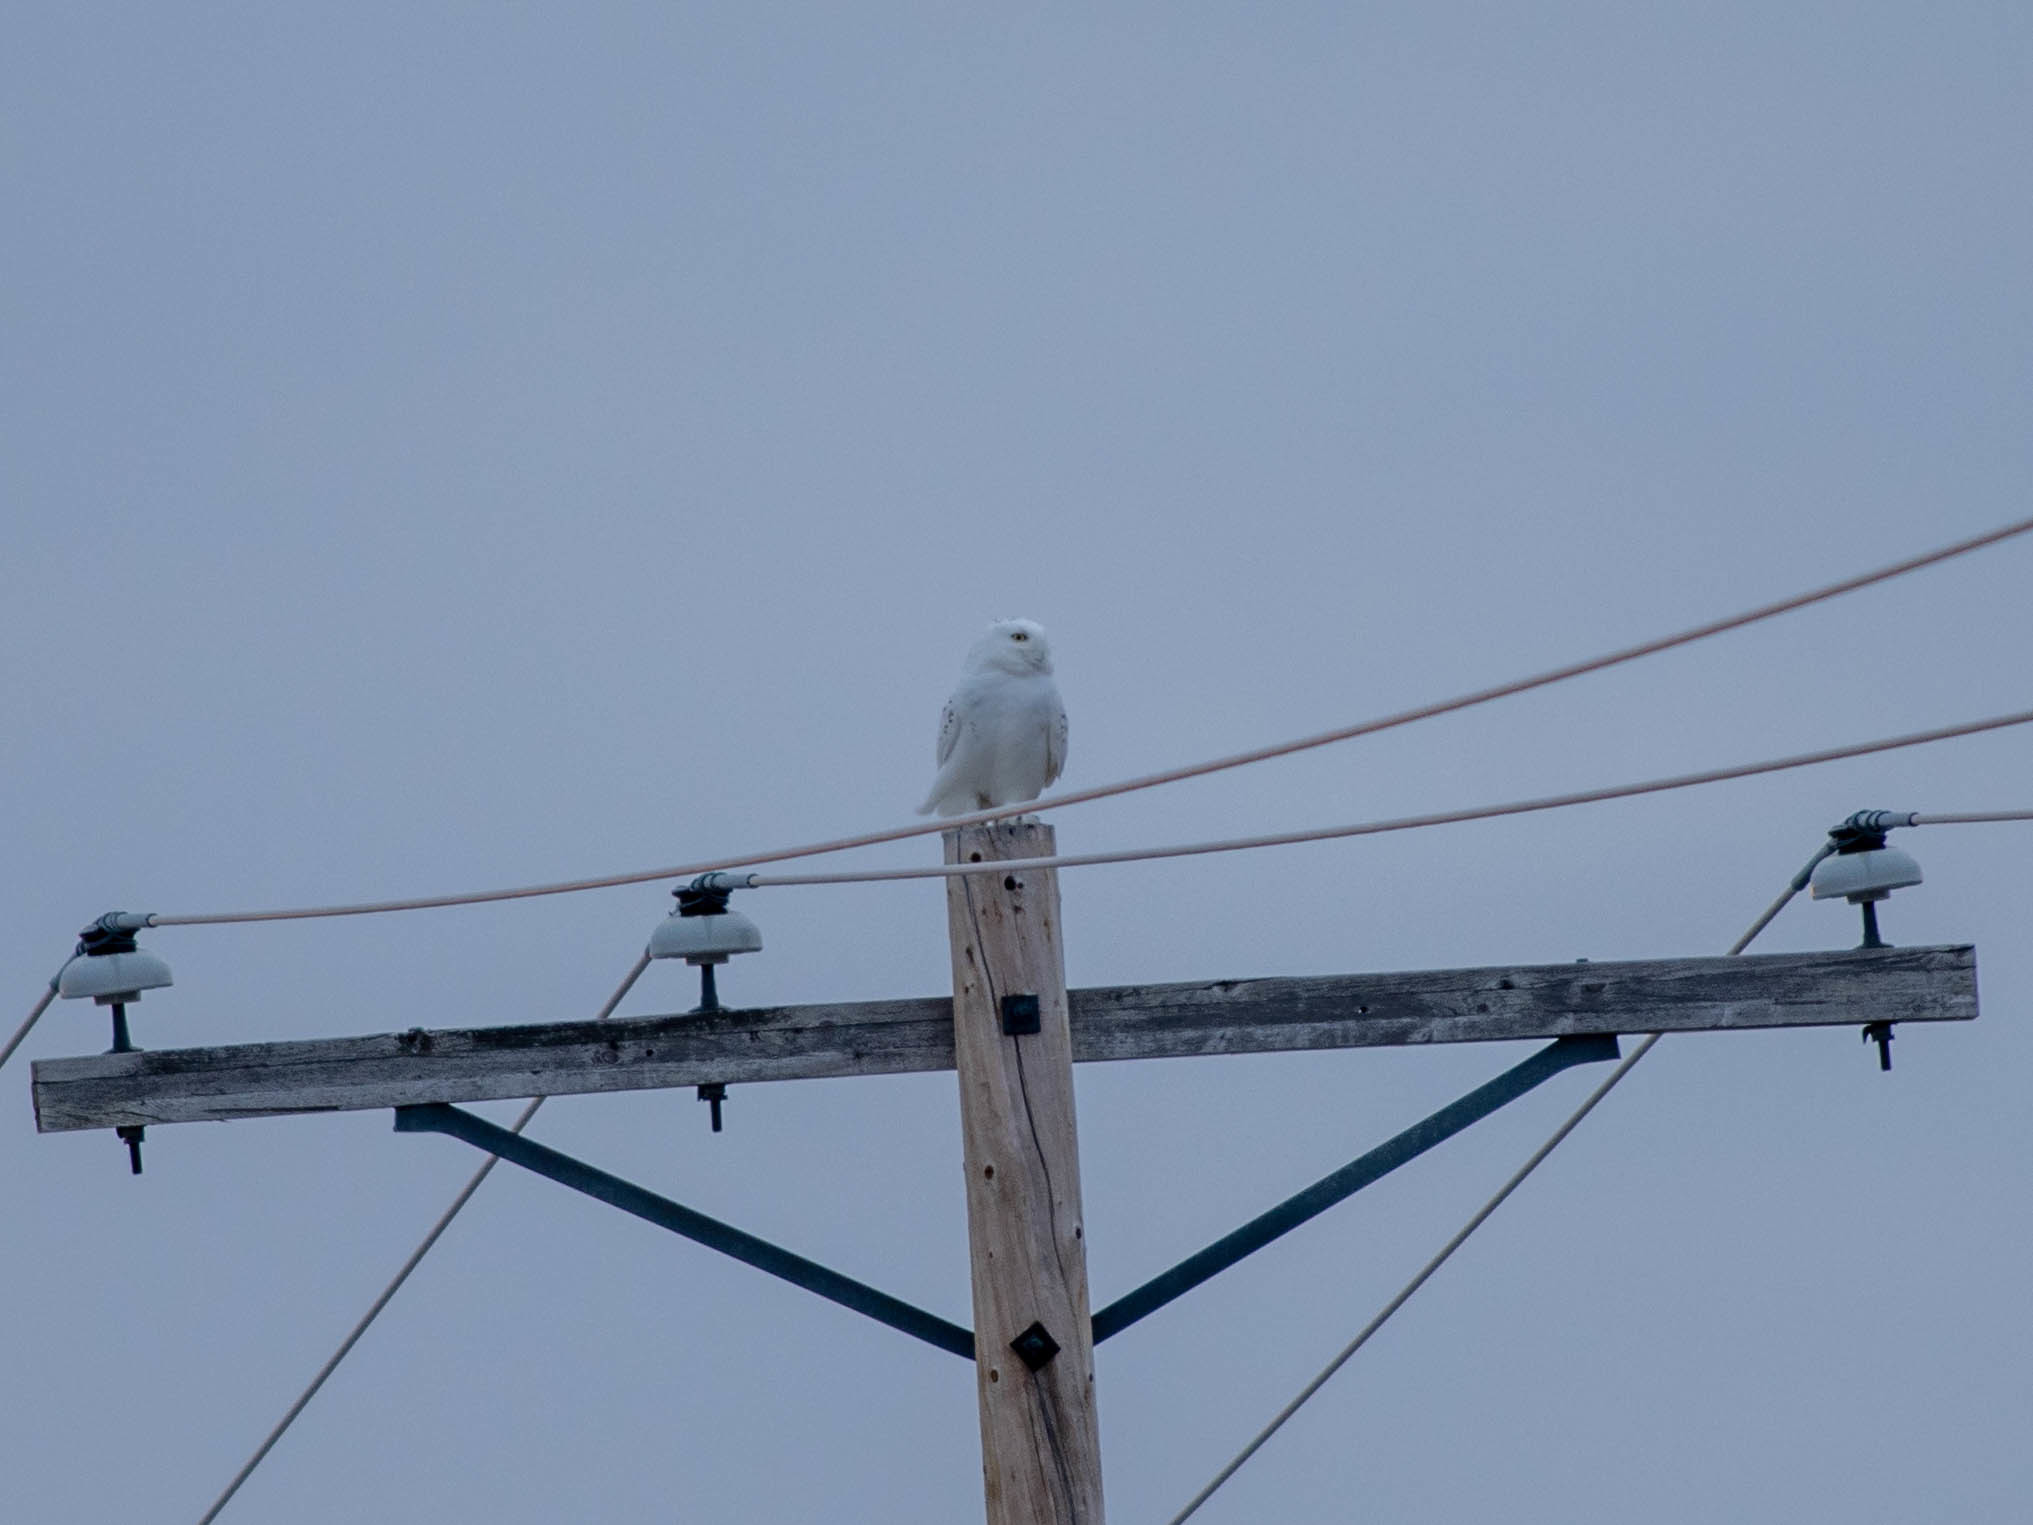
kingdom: Animalia
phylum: Chordata
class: Aves
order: Strigiformes
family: Strigidae
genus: Bubo
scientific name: Bubo scandiacus
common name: Snowy owl
